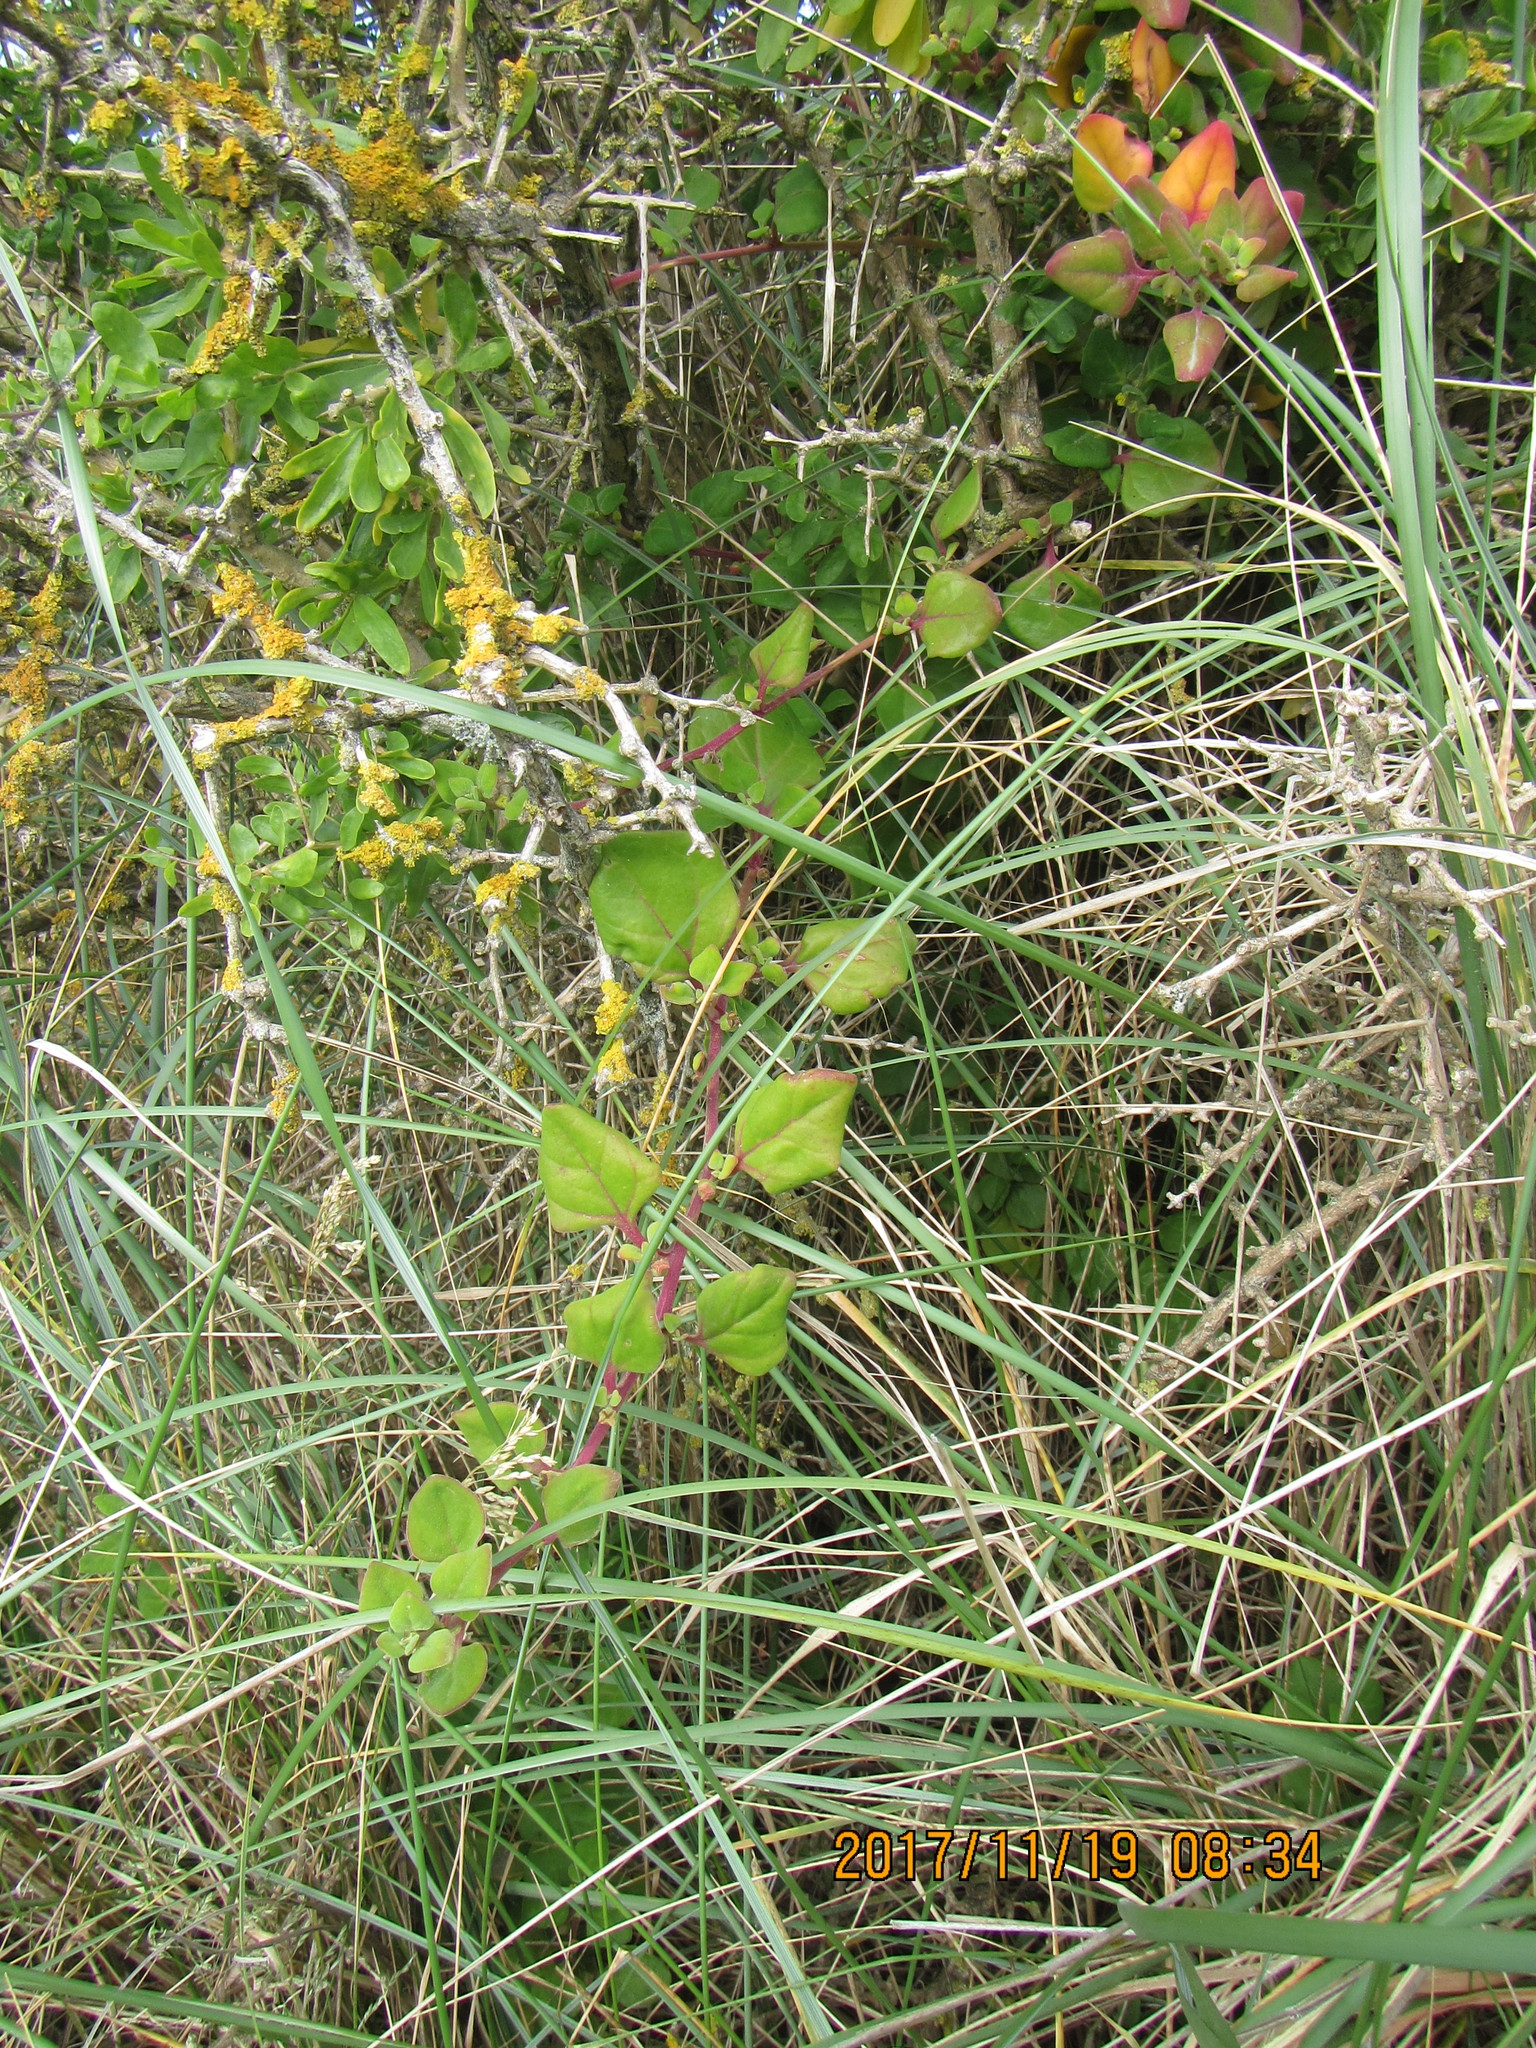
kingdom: Plantae
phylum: Tracheophyta
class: Magnoliopsida
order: Solanales
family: Solanaceae
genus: Lycium
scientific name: Lycium ferocissimum
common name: African boxthorn
